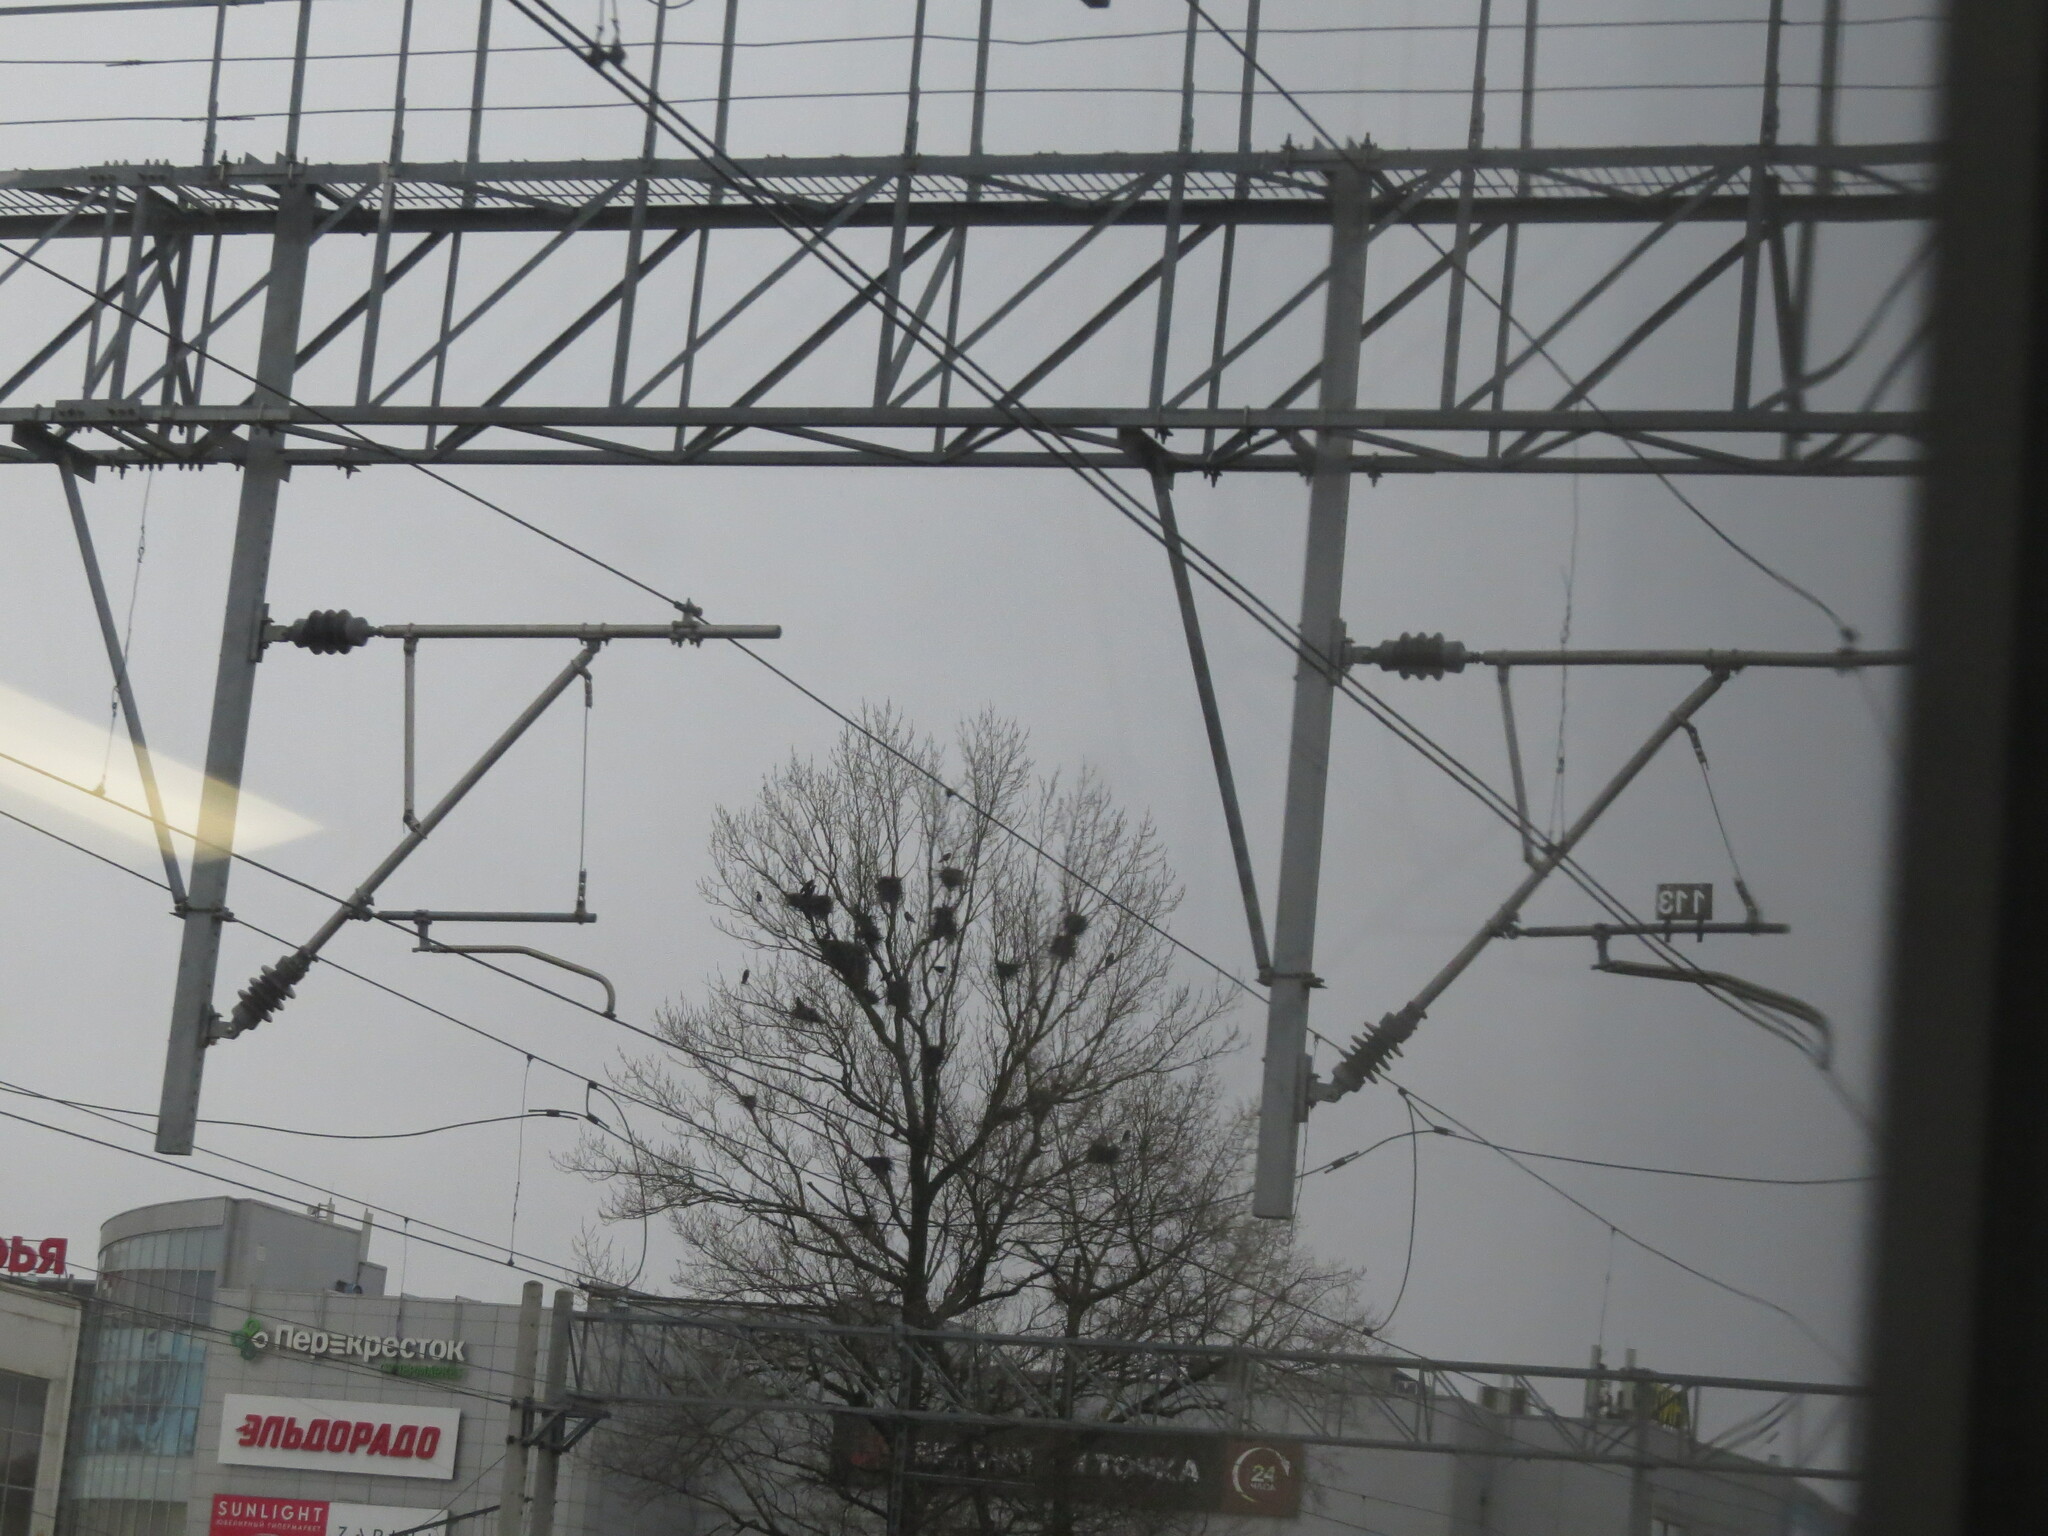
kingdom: Animalia
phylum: Chordata
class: Aves
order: Passeriformes
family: Corvidae
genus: Corvus
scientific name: Corvus frugilegus
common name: Rook
